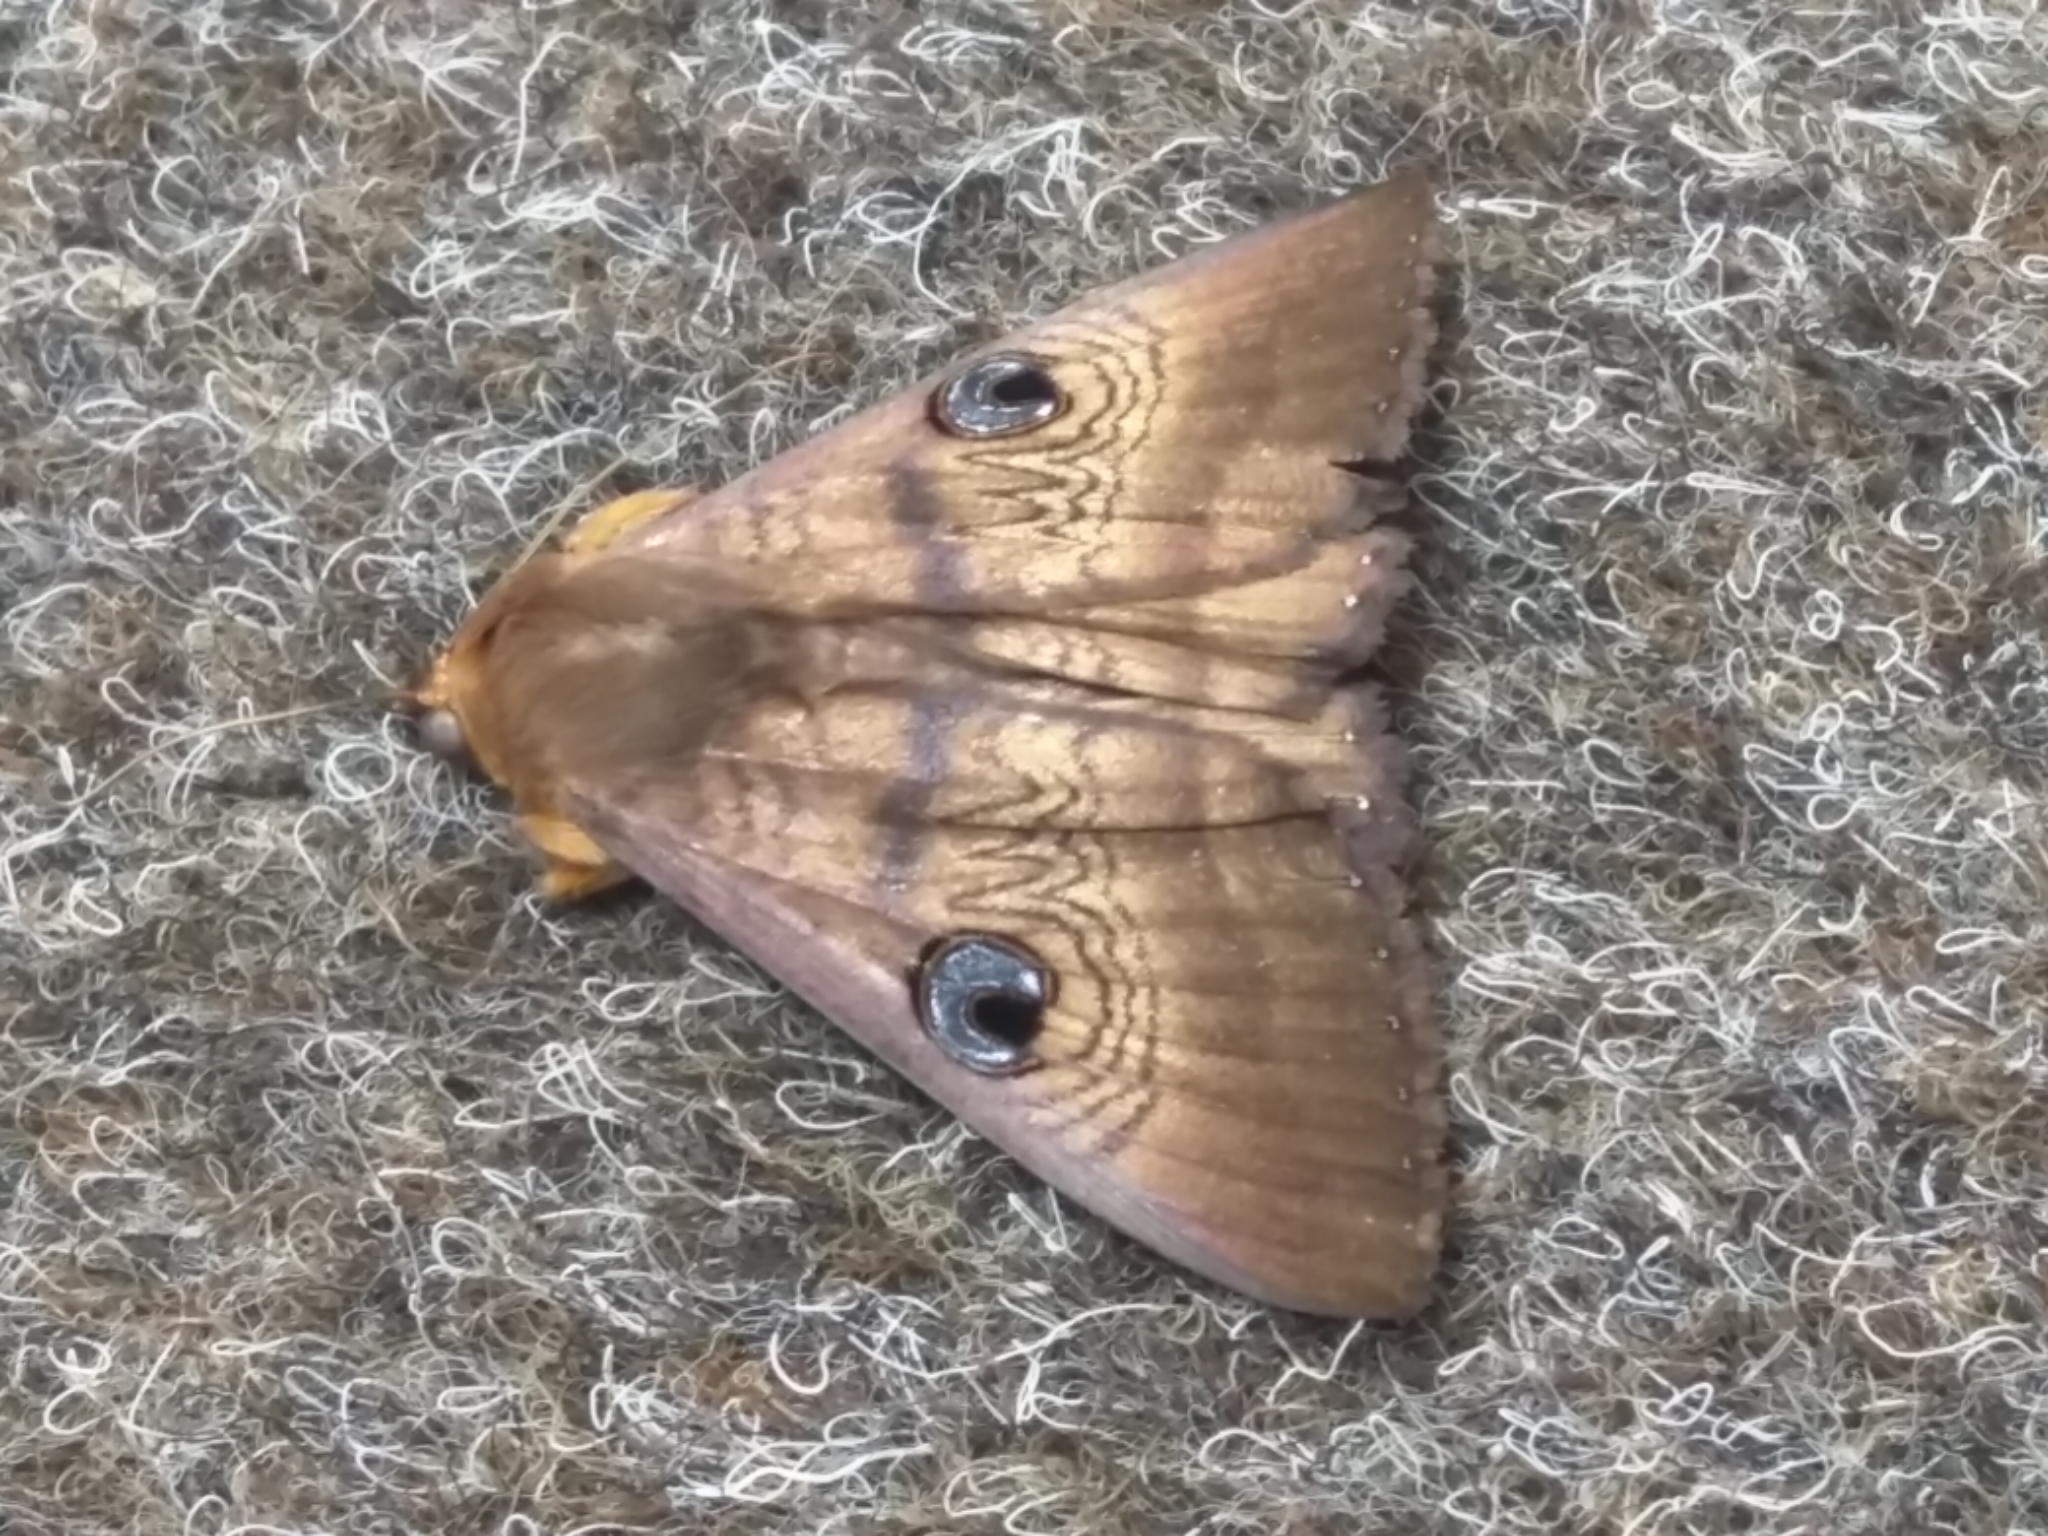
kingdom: Animalia
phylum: Arthropoda
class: Insecta
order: Lepidoptera
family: Erebidae
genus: Dasypodia
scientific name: Dasypodia selenophora
